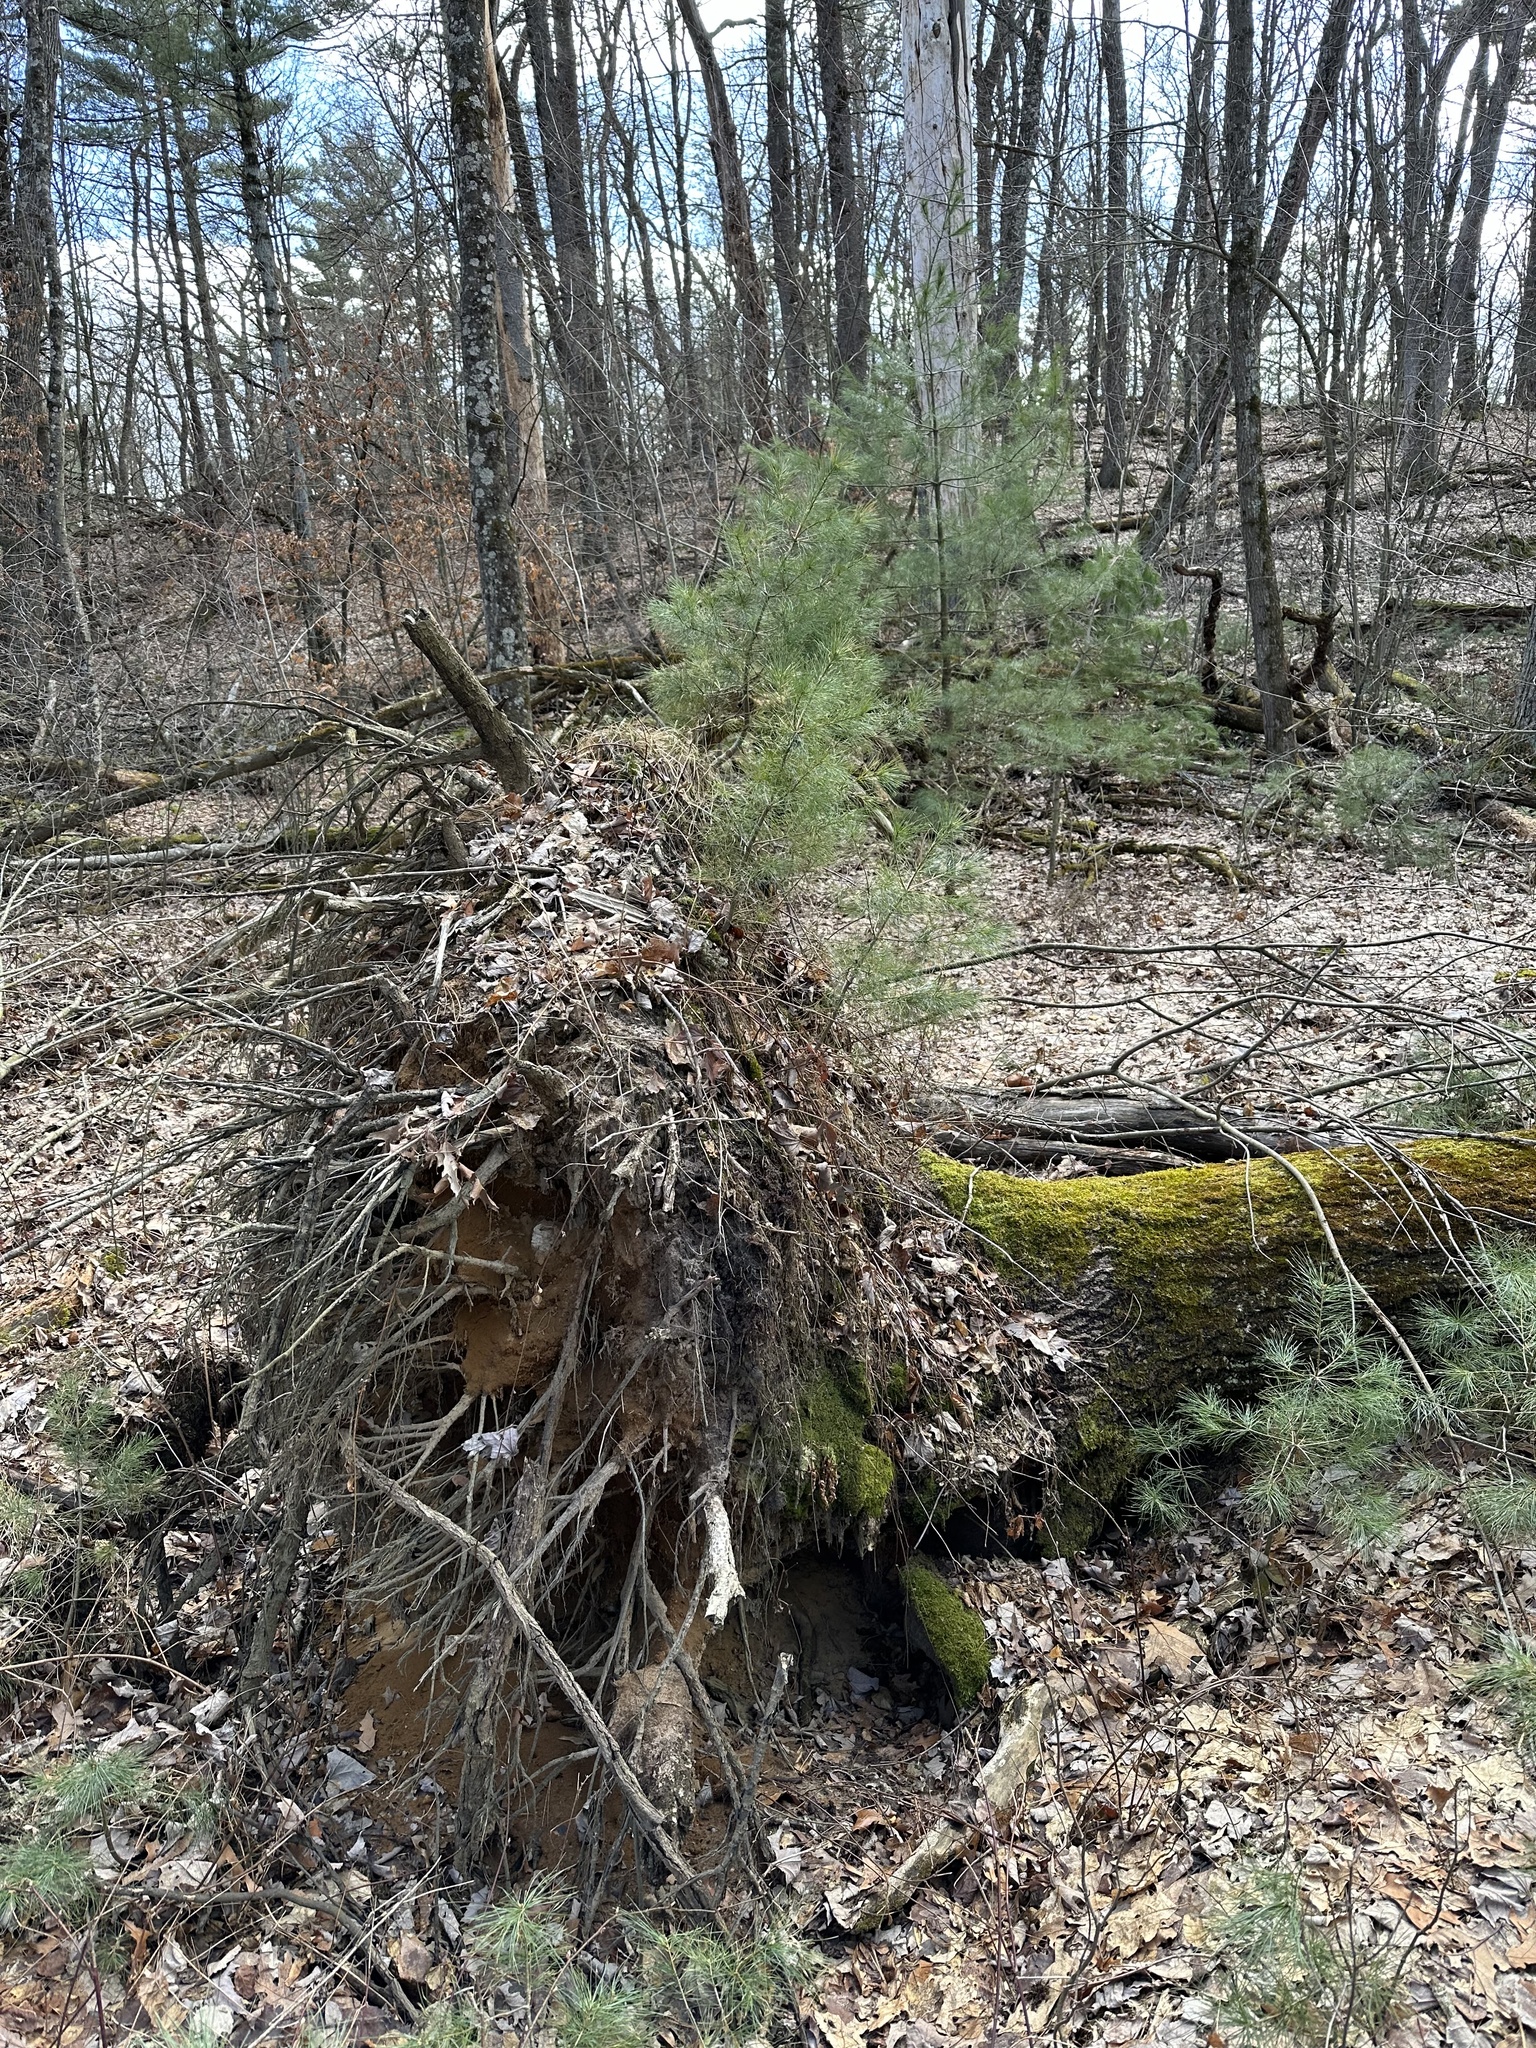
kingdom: Plantae
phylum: Tracheophyta
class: Pinopsida
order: Pinales
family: Pinaceae
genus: Pinus
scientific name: Pinus strobus
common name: Weymouth pine
